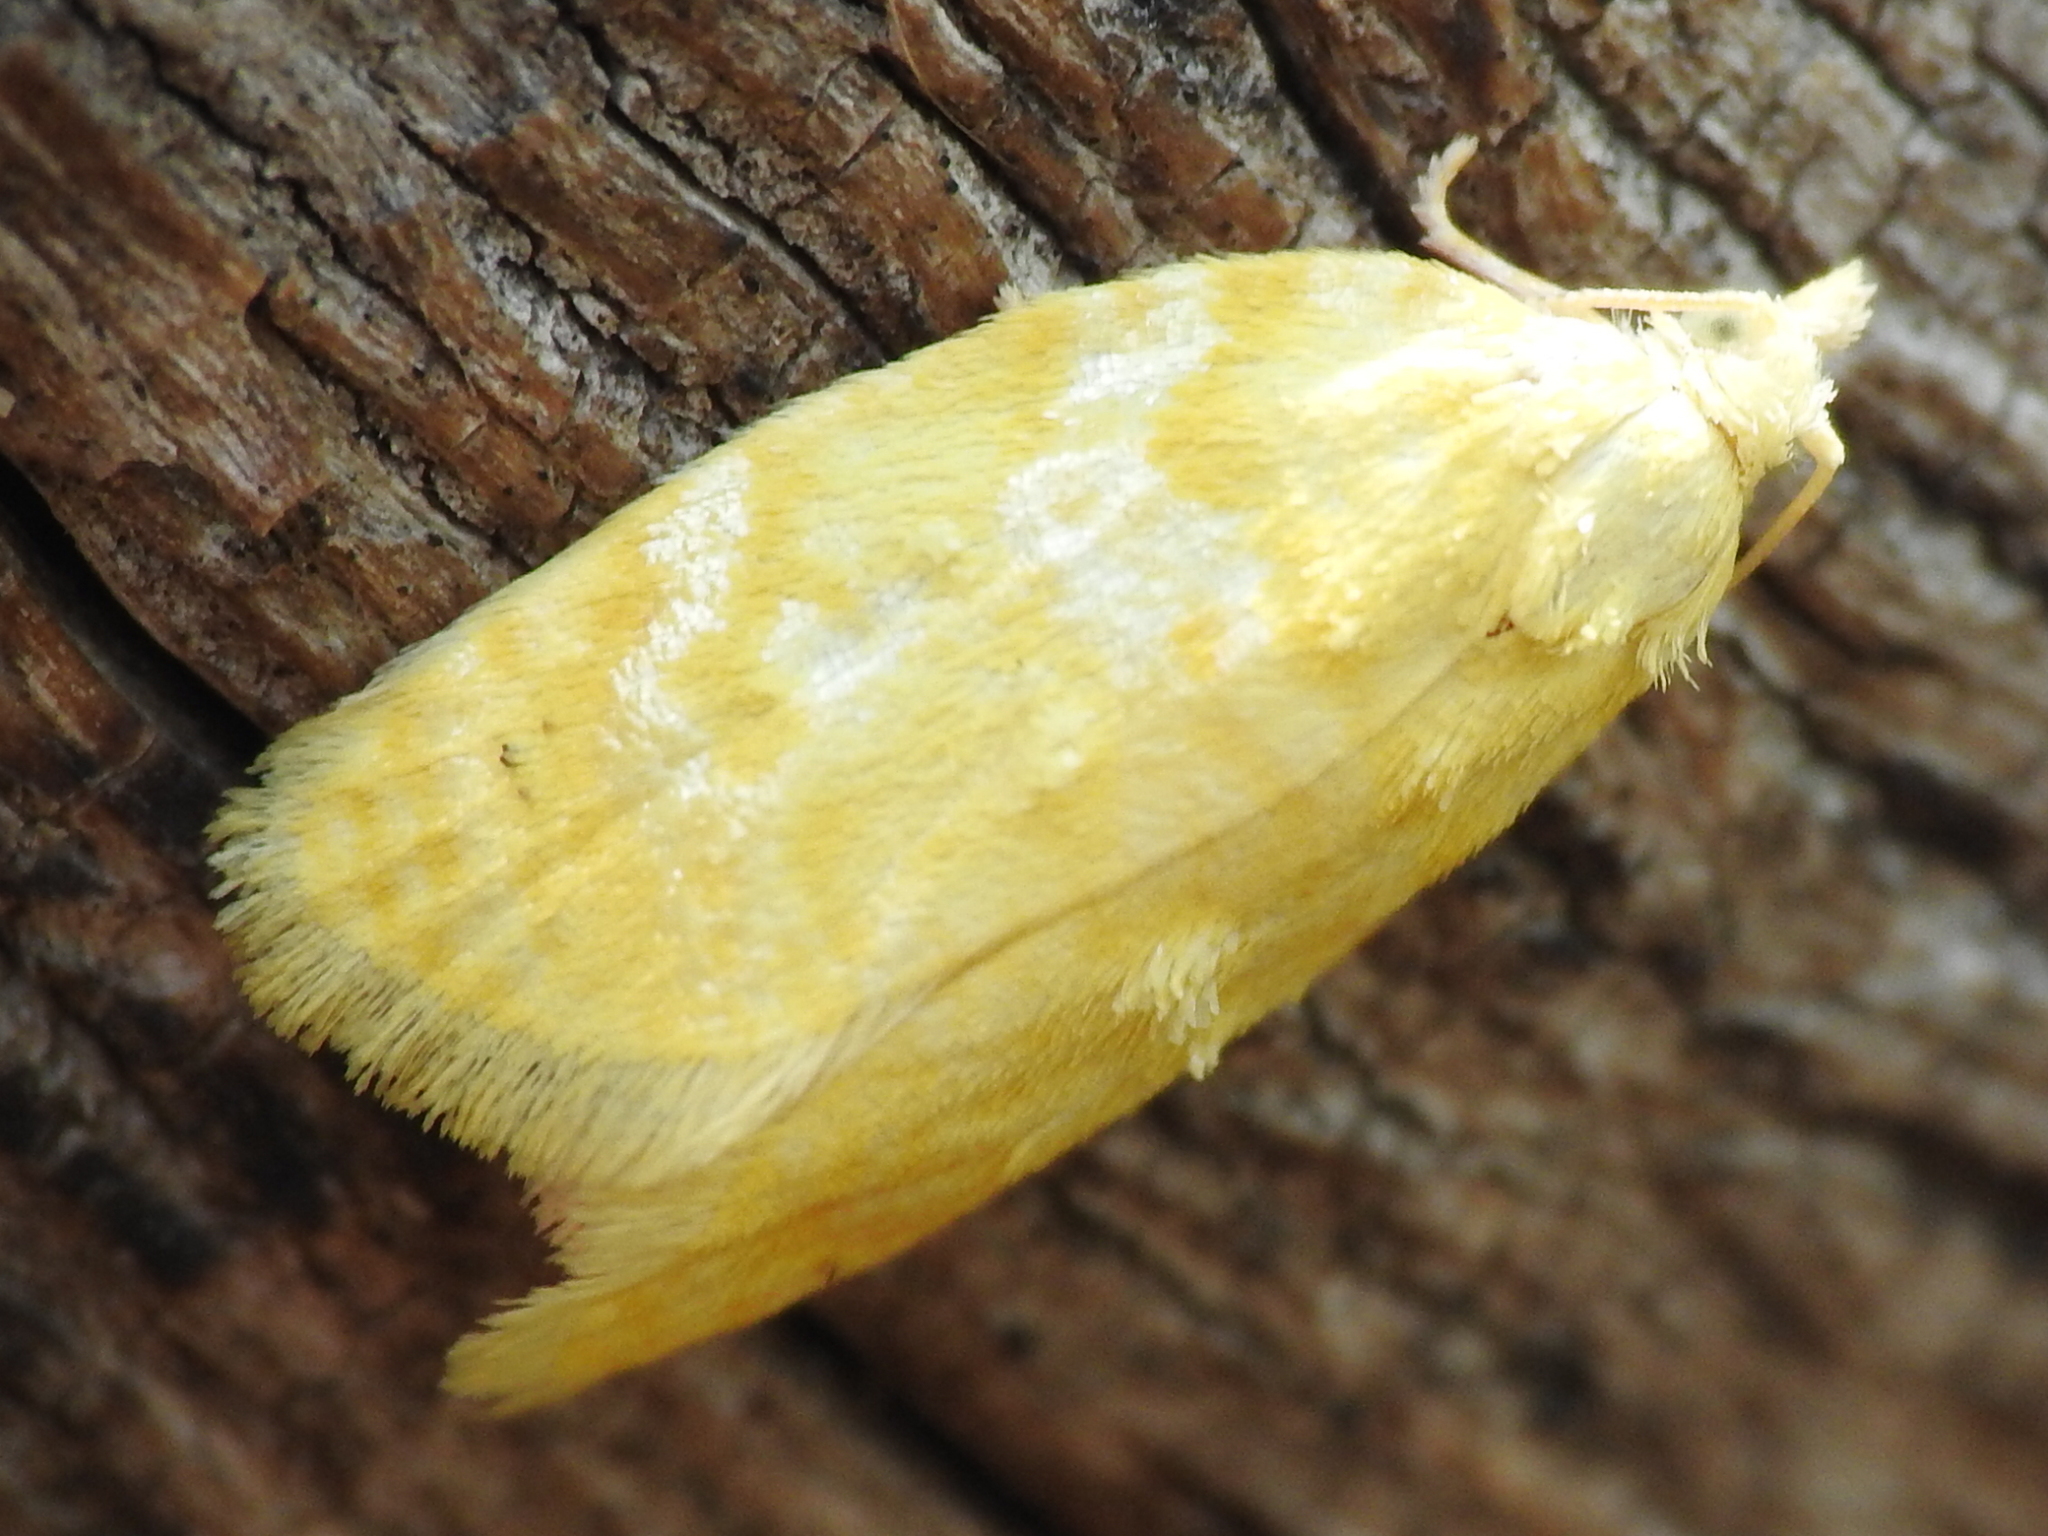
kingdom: Animalia
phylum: Arthropoda
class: Insecta
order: Lepidoptera
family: Tortricidae
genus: Acleris
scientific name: Acleris semipurpurana
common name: Oak leaftier moth
